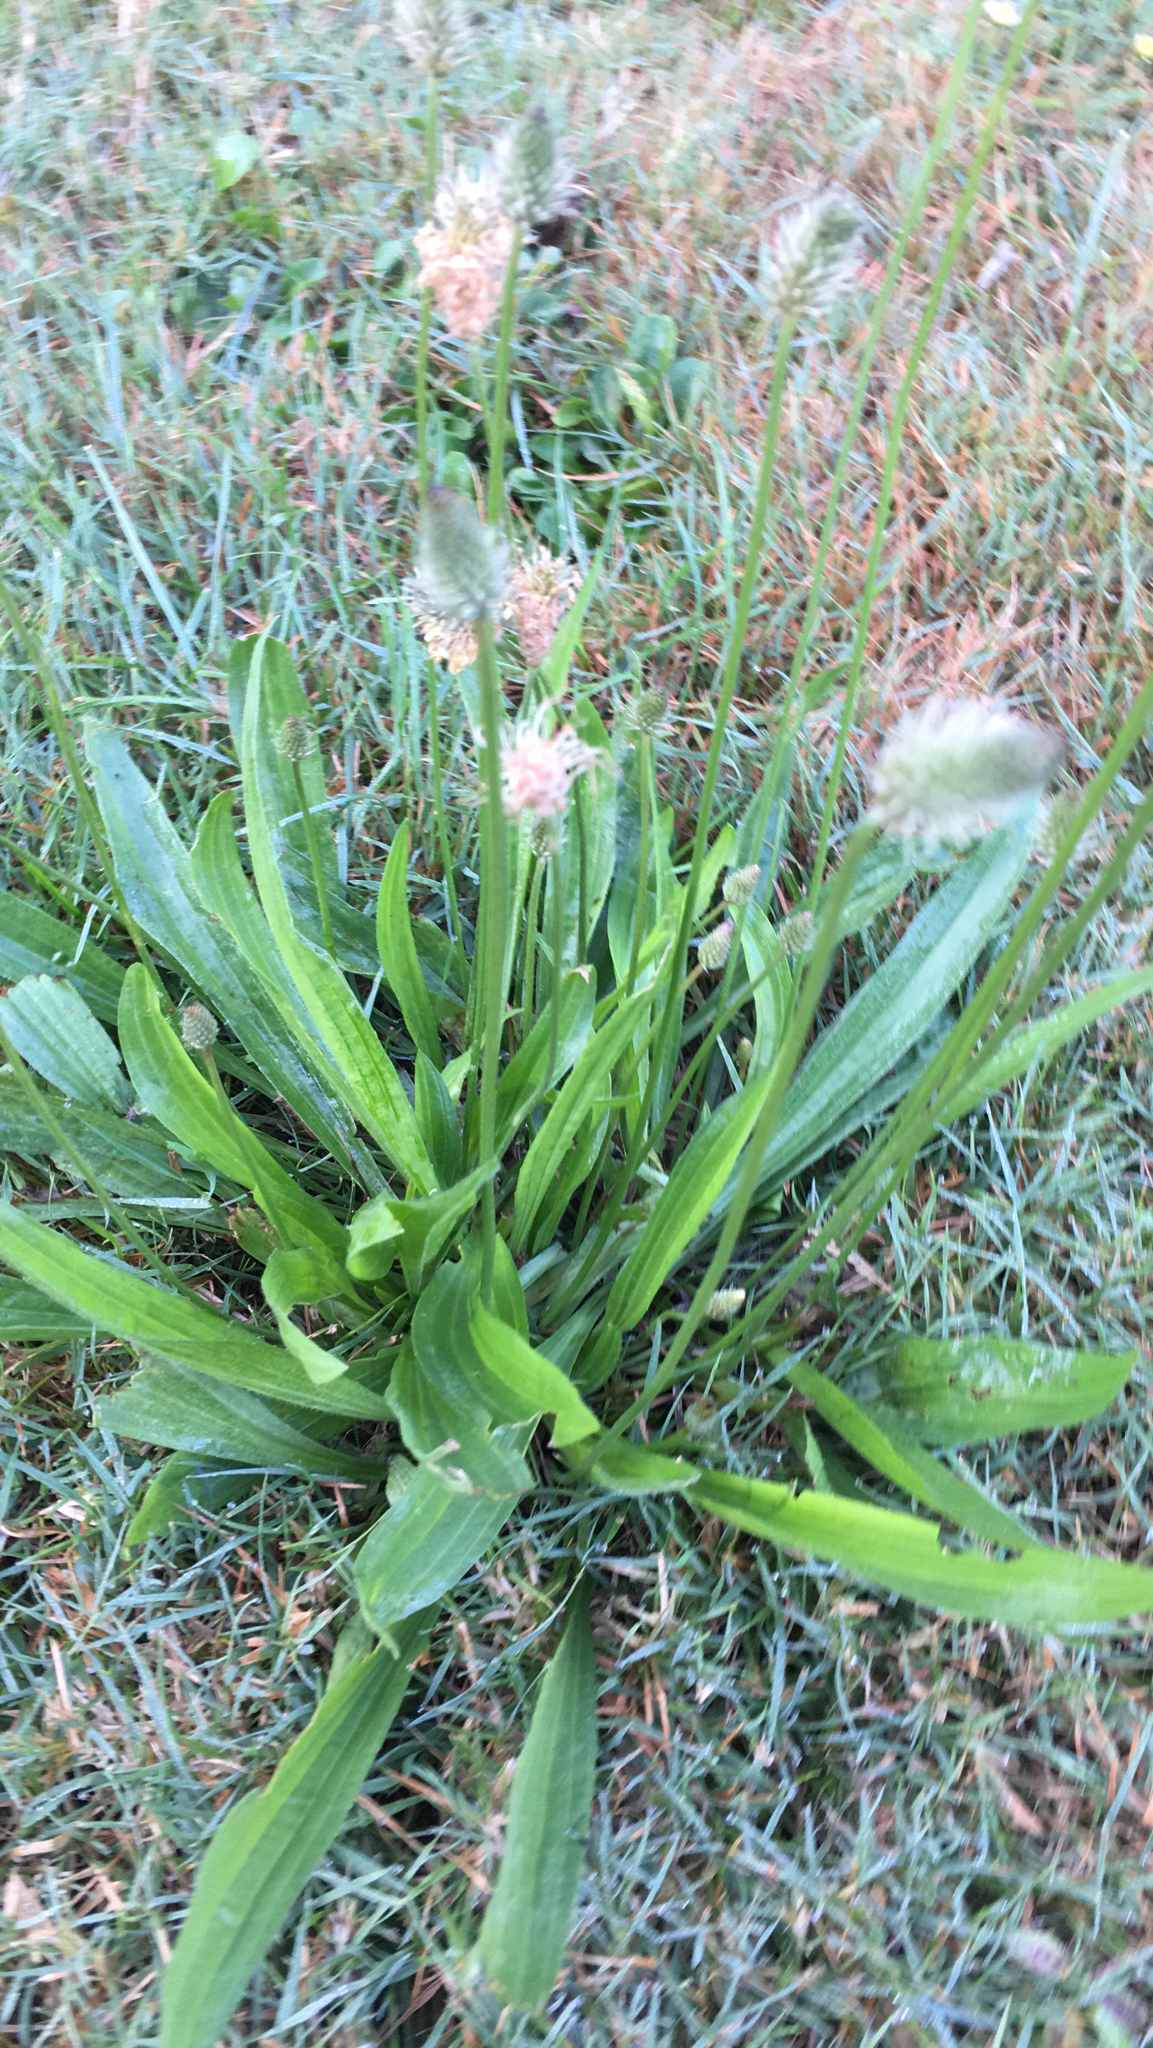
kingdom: Plantae
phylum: Tracheophyta
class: Magnoliopsida
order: Lamiales
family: Plantaginaceae
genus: Plantago
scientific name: Plantago lanceolata
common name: Ribwort plantain
